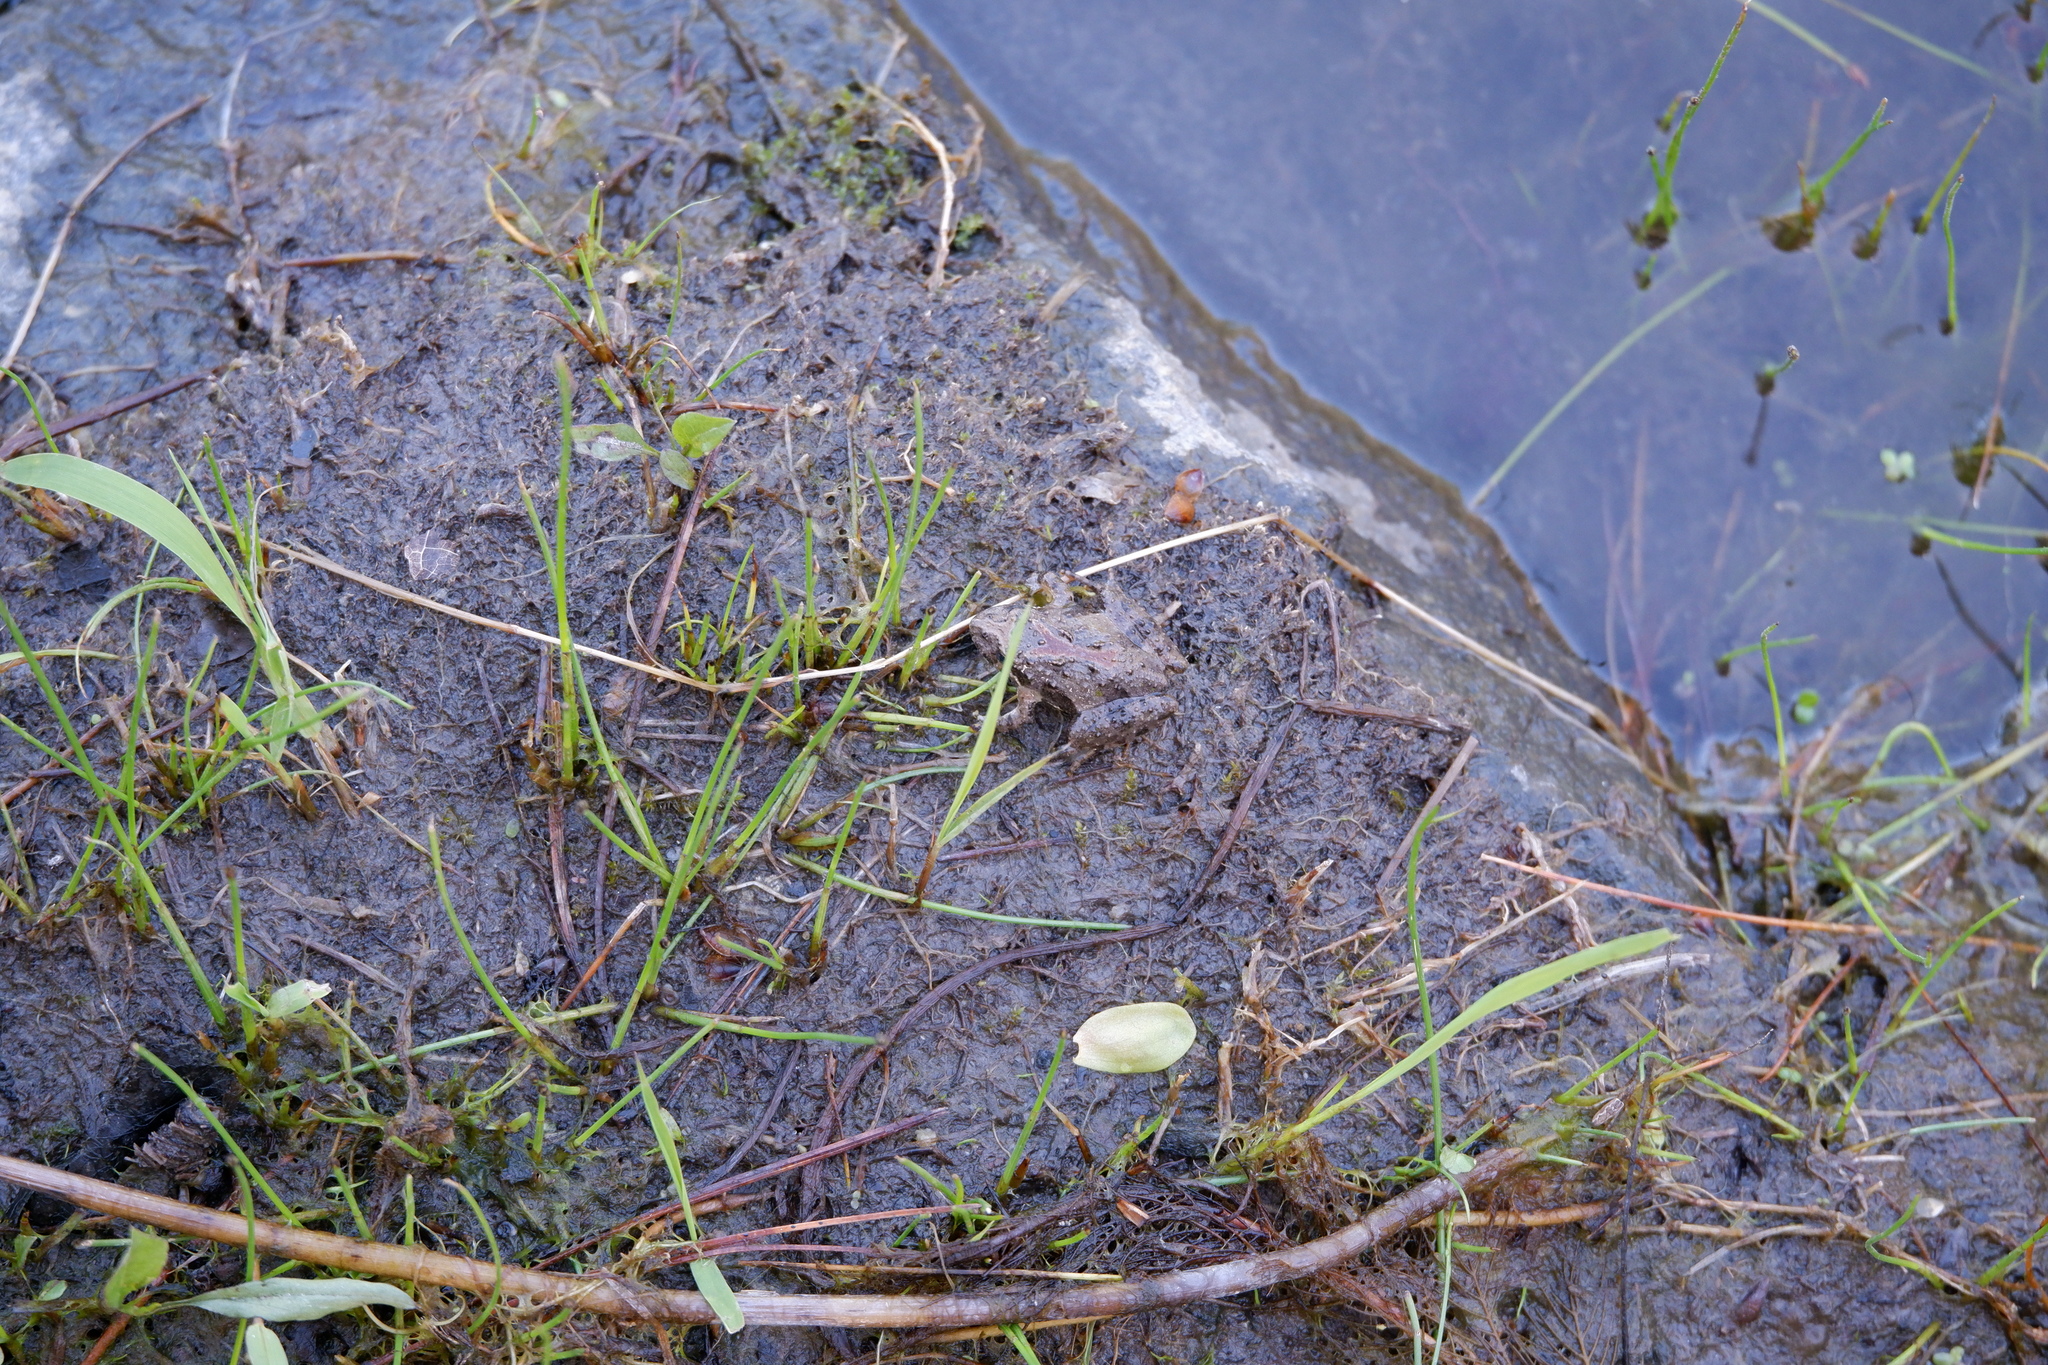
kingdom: Animalia
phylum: Chordata
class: Amphibia
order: Anura
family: Hylidae
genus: Acris
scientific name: Acris crepitans
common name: Northern cricket frog
